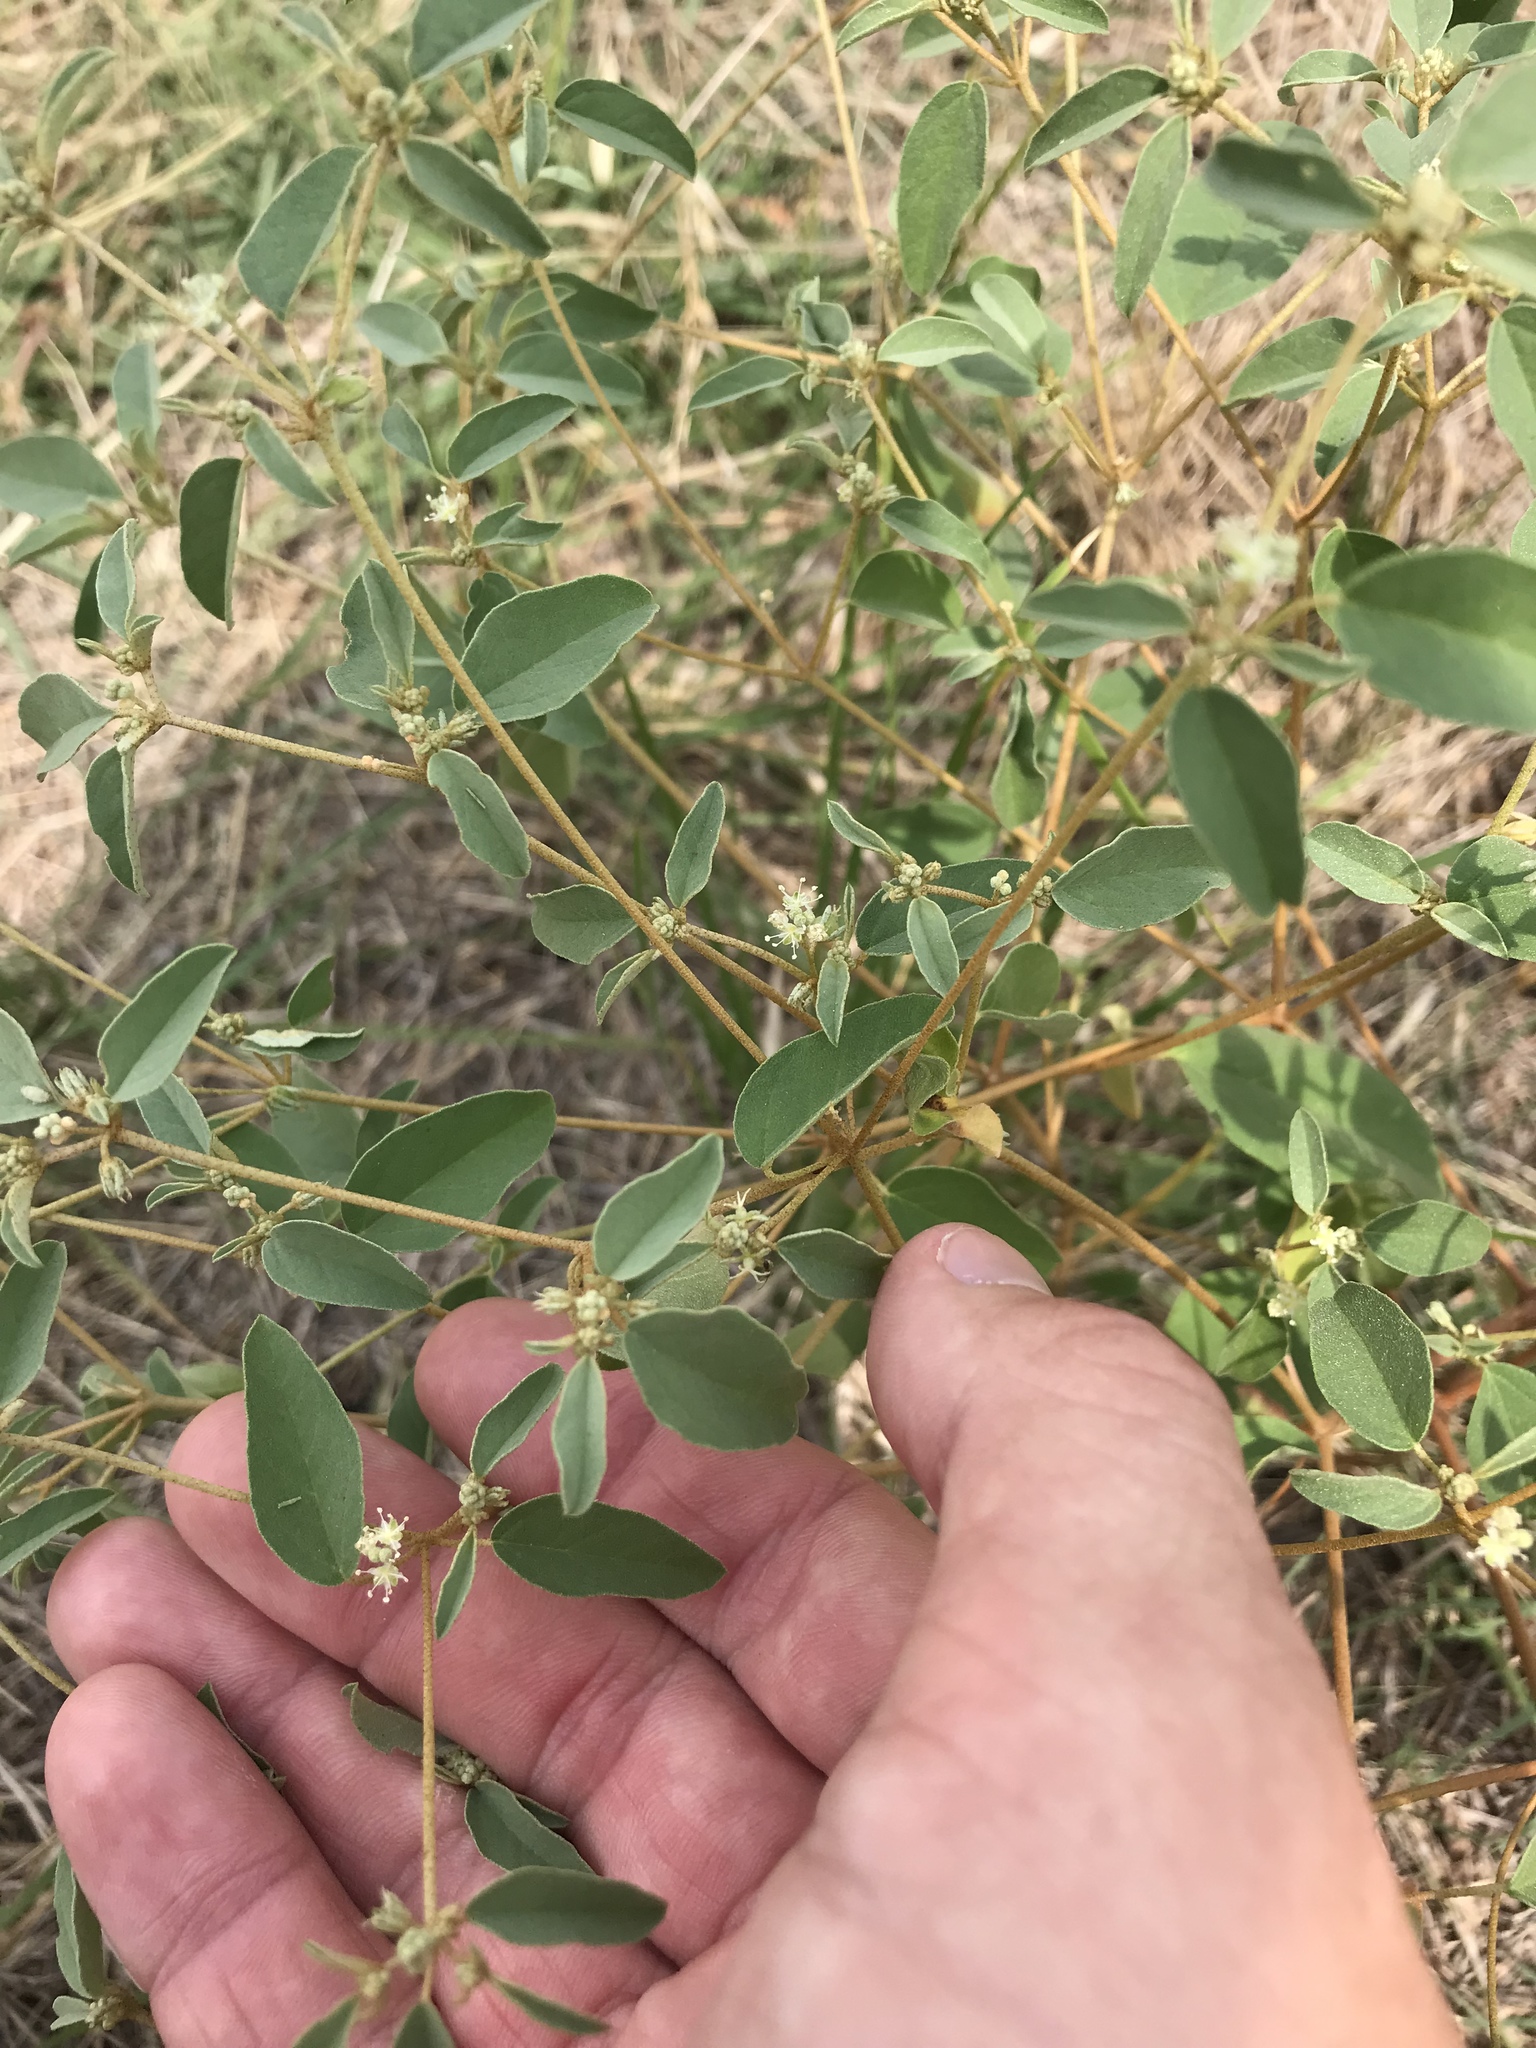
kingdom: Plantae
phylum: Tracheophyta
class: Magnoliopsida
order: Malpighiales
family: Euphorbiaceae
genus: Croton
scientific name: Croton monanthogynus
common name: One-seed croton
